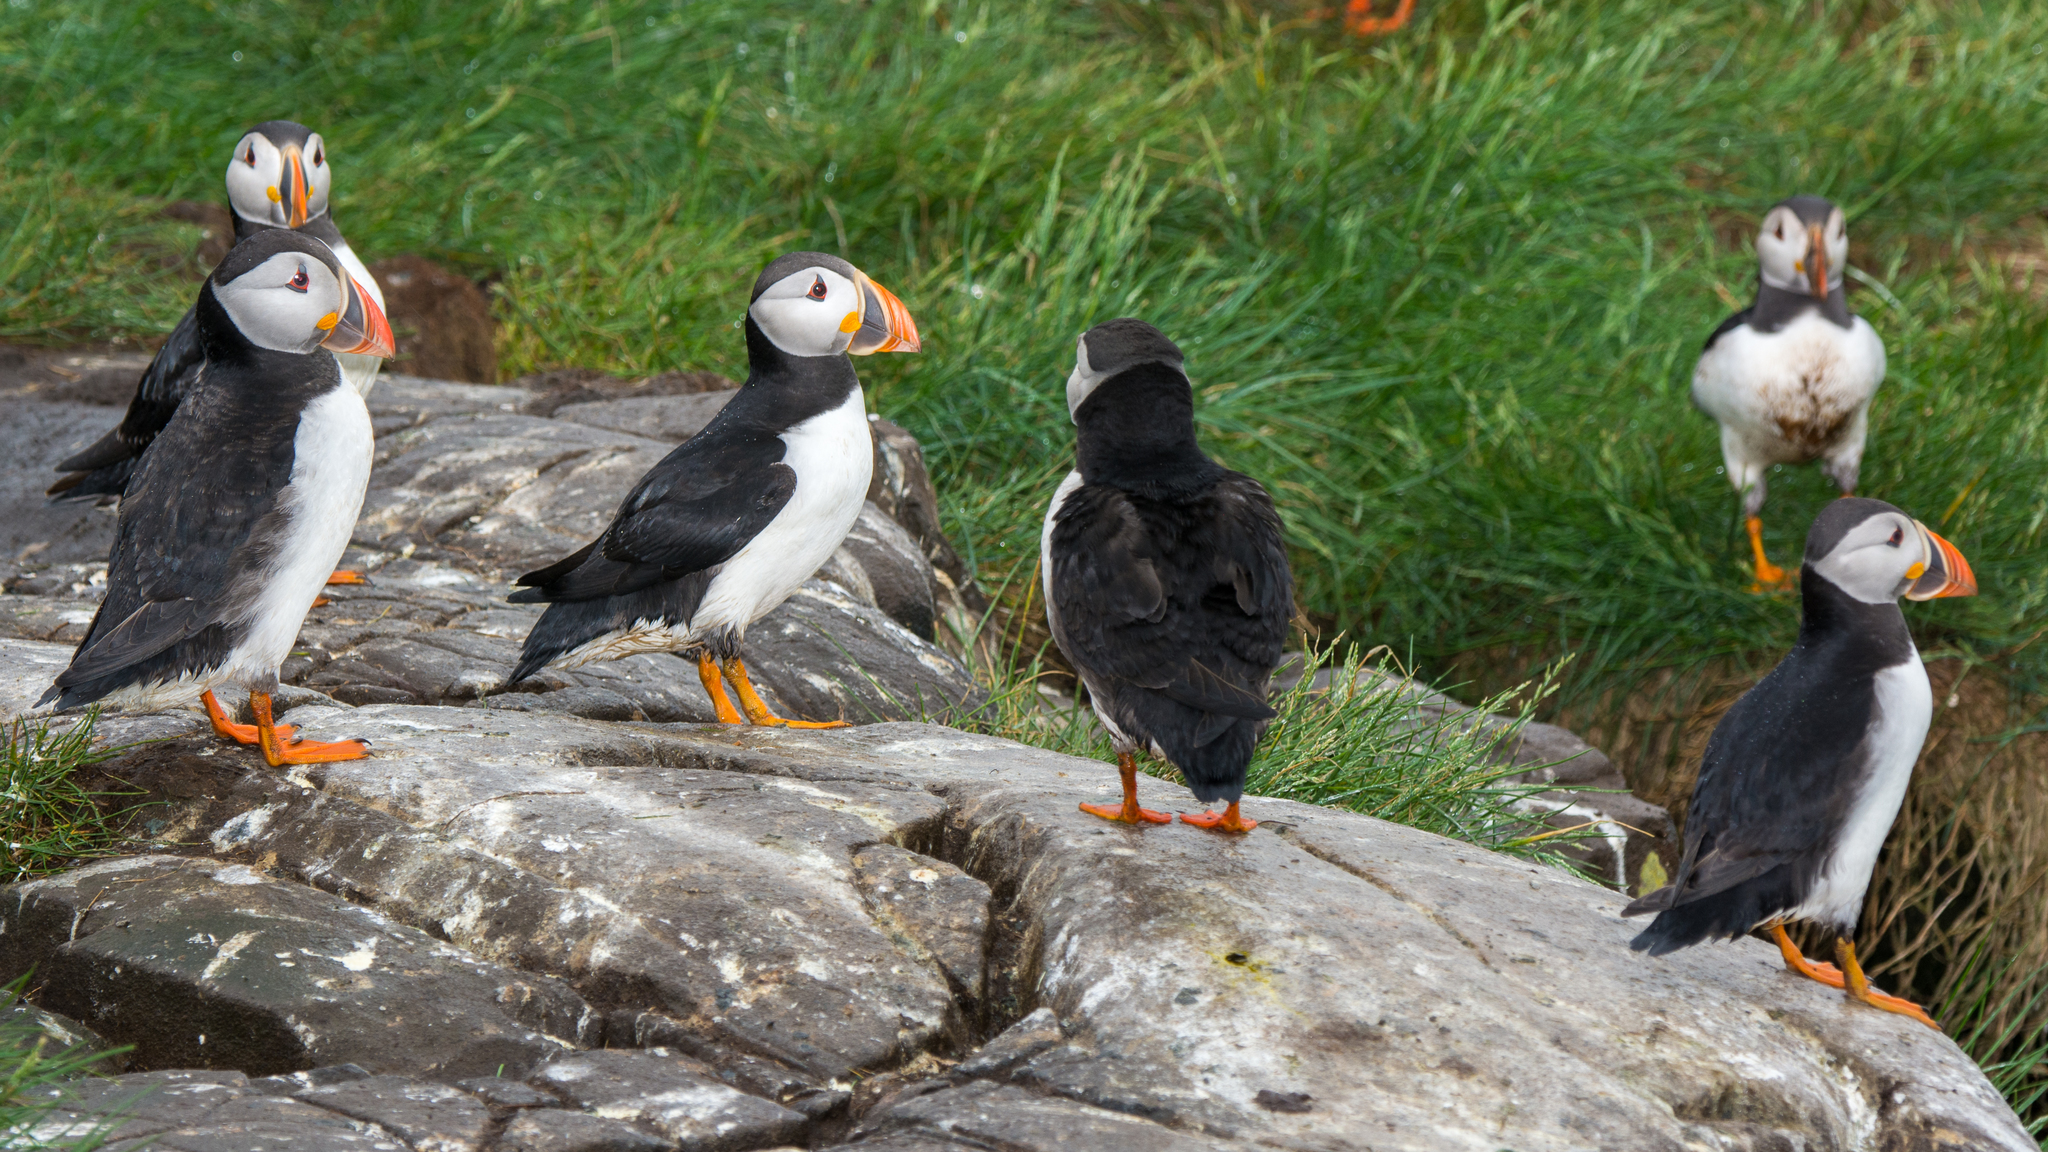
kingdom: Animalia
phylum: Chordata
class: Aves
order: Charadriiformes
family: Alcidae
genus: Fratercula
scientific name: Fratercula arctica
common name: Atlantic puffin
